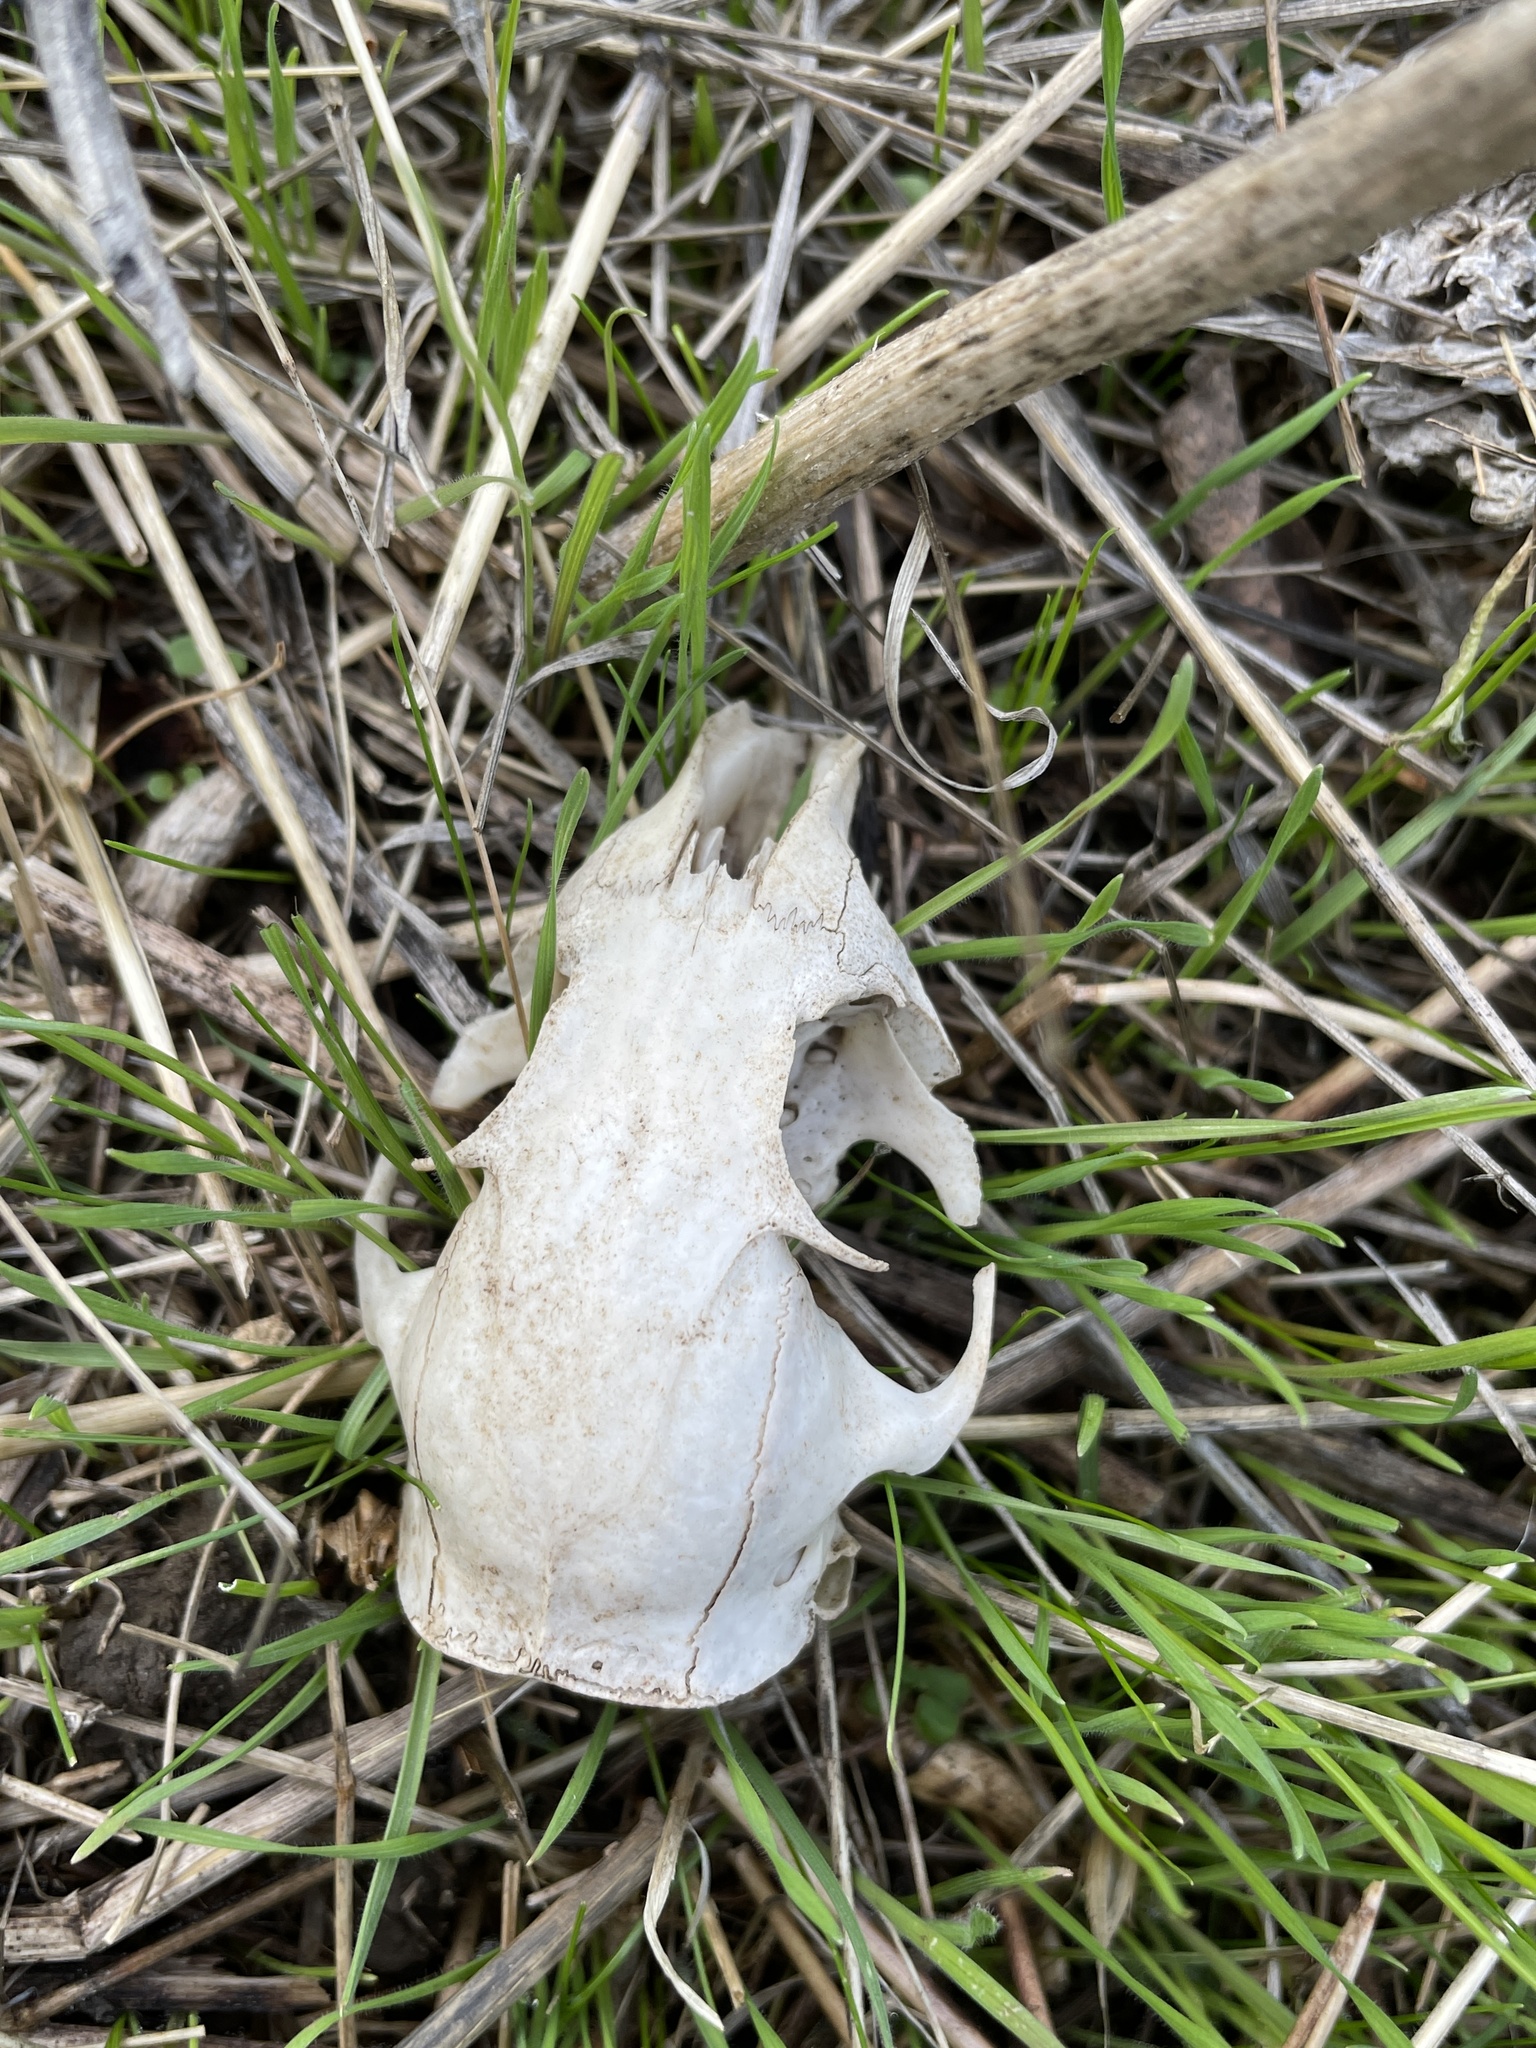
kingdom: Animalia
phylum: Chordata
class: Mammalia
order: Rodentia
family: Sciuridae
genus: Otospermophilus
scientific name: Otospermophilus beecheyi
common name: California ground squirrel
